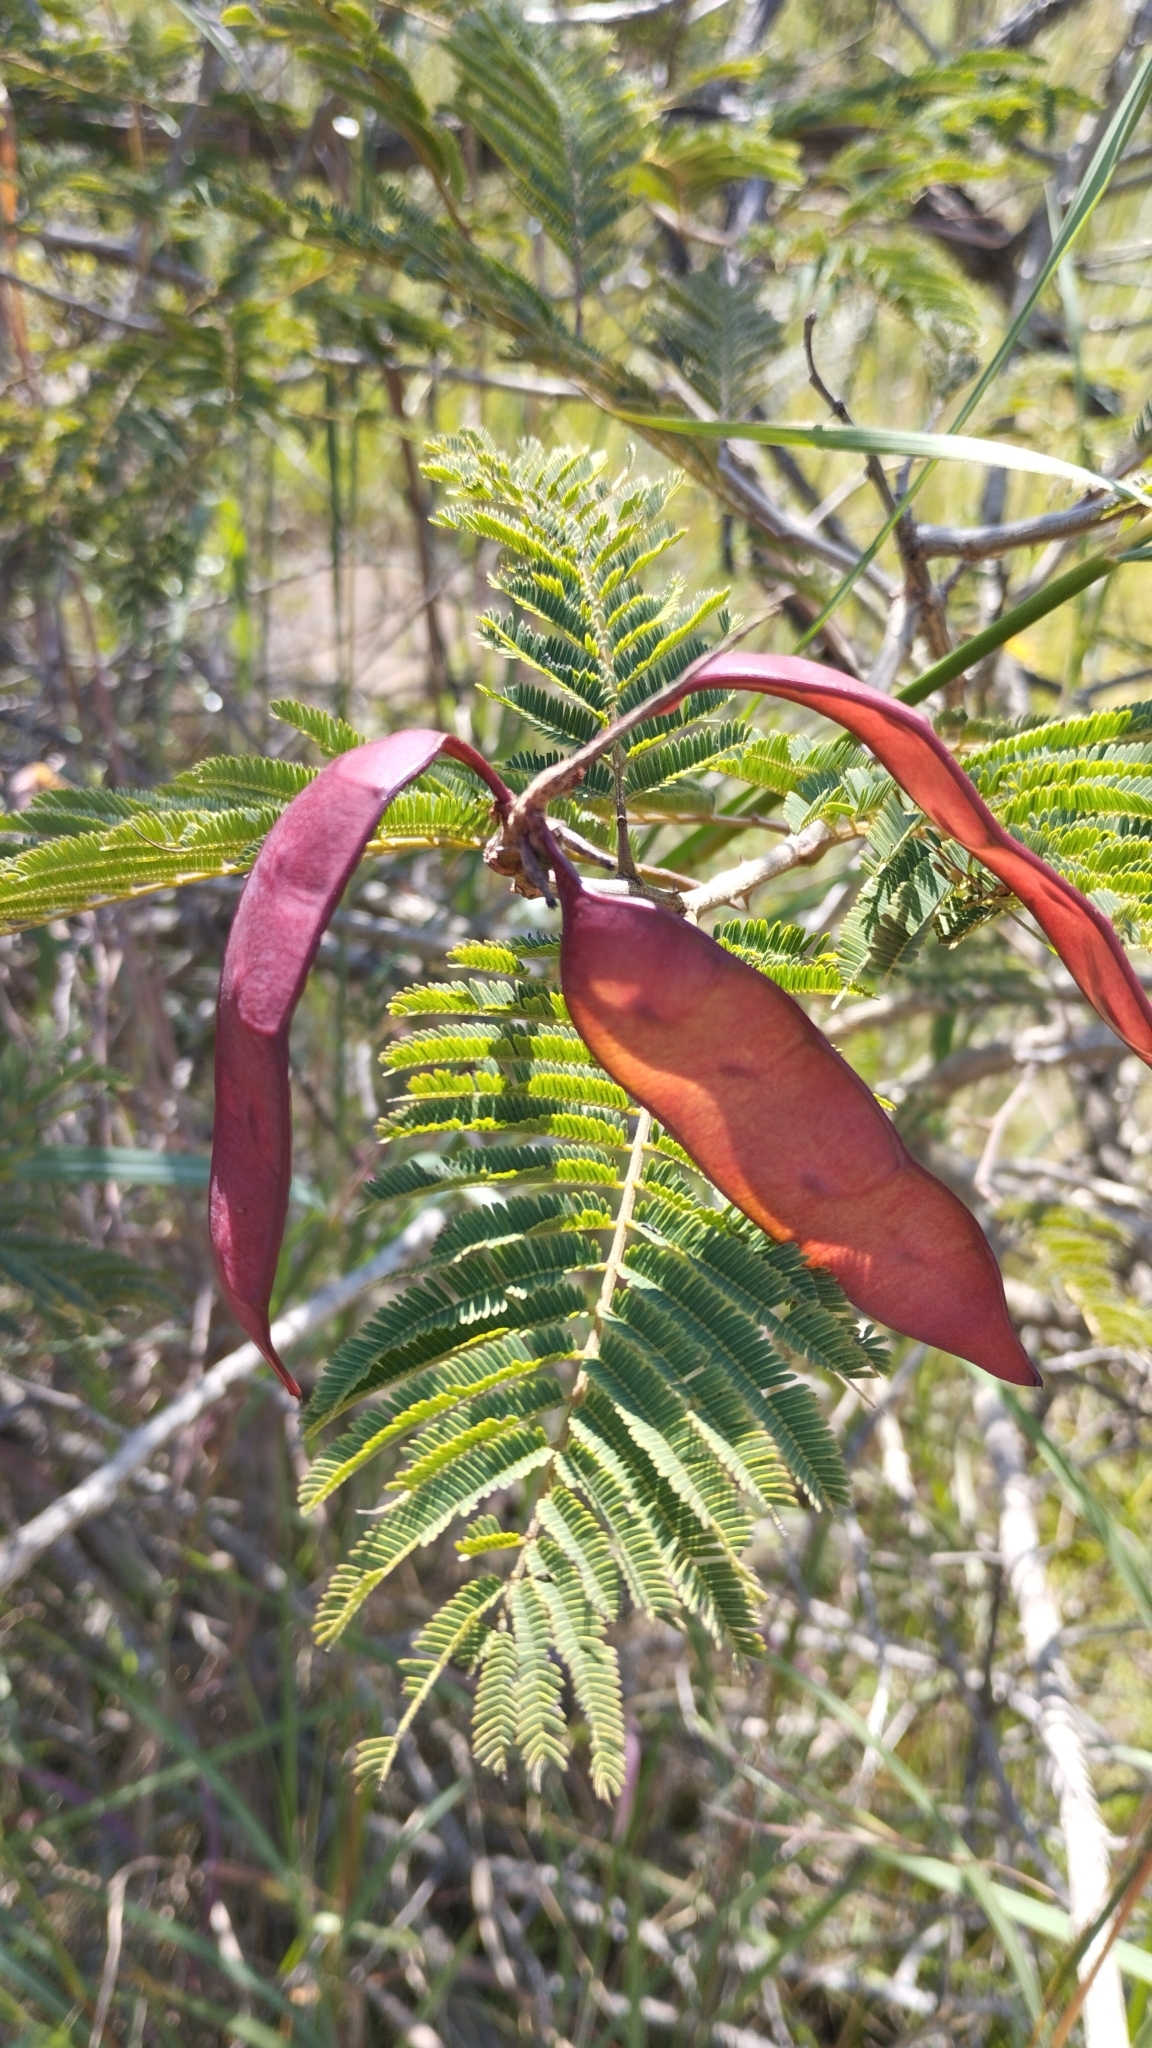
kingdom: Plantae
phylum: Tracheophyta
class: Magnoliopsida
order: Fabales
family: Fabaceae
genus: Senegalia
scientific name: Senegalia ataxacantha
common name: Flame acacia
